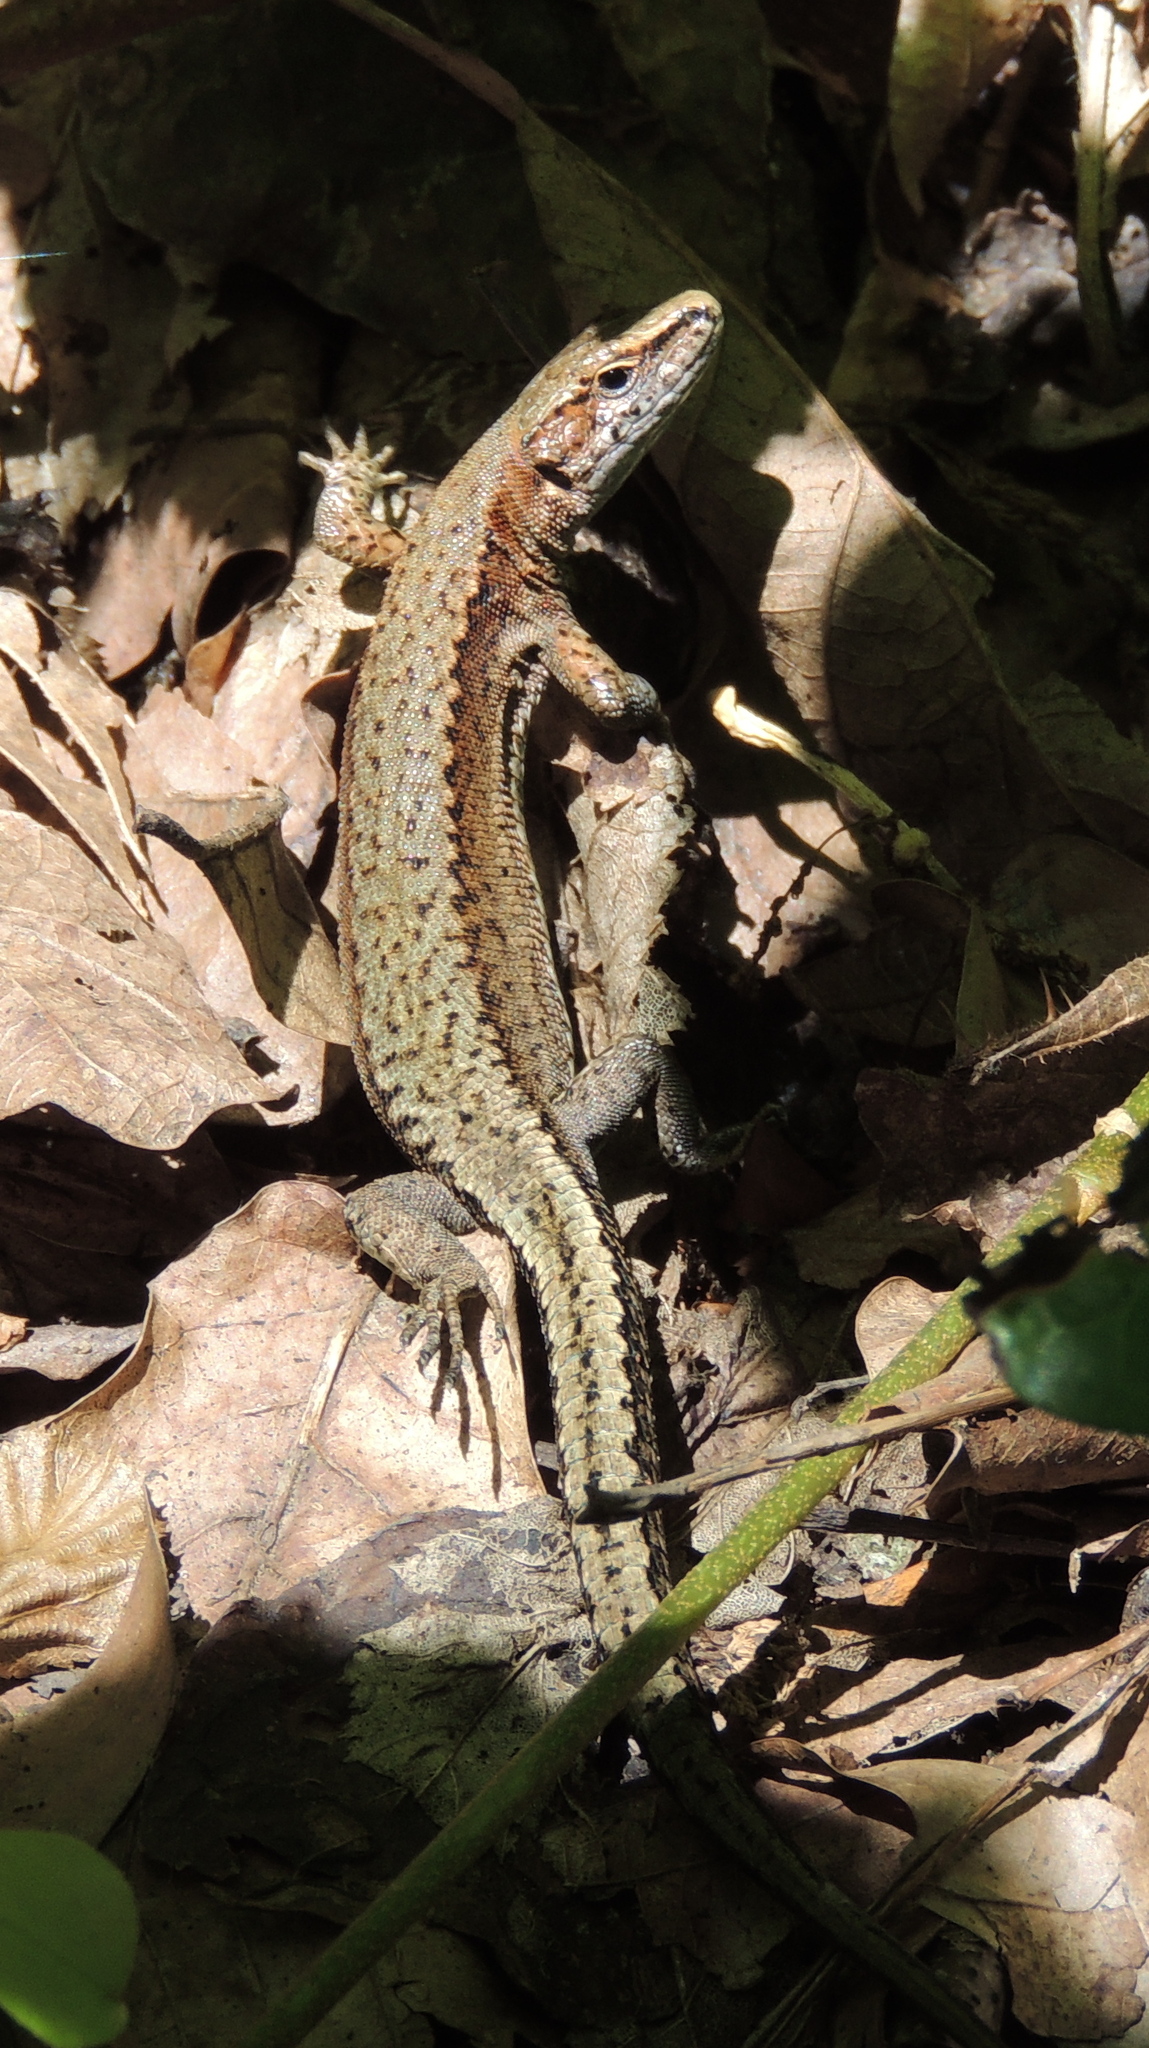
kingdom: Animalia
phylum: Chordata
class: Squamata
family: Lacertidae
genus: Darevskia
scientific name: Darevskia derjugini
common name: Derjugin's lizard
